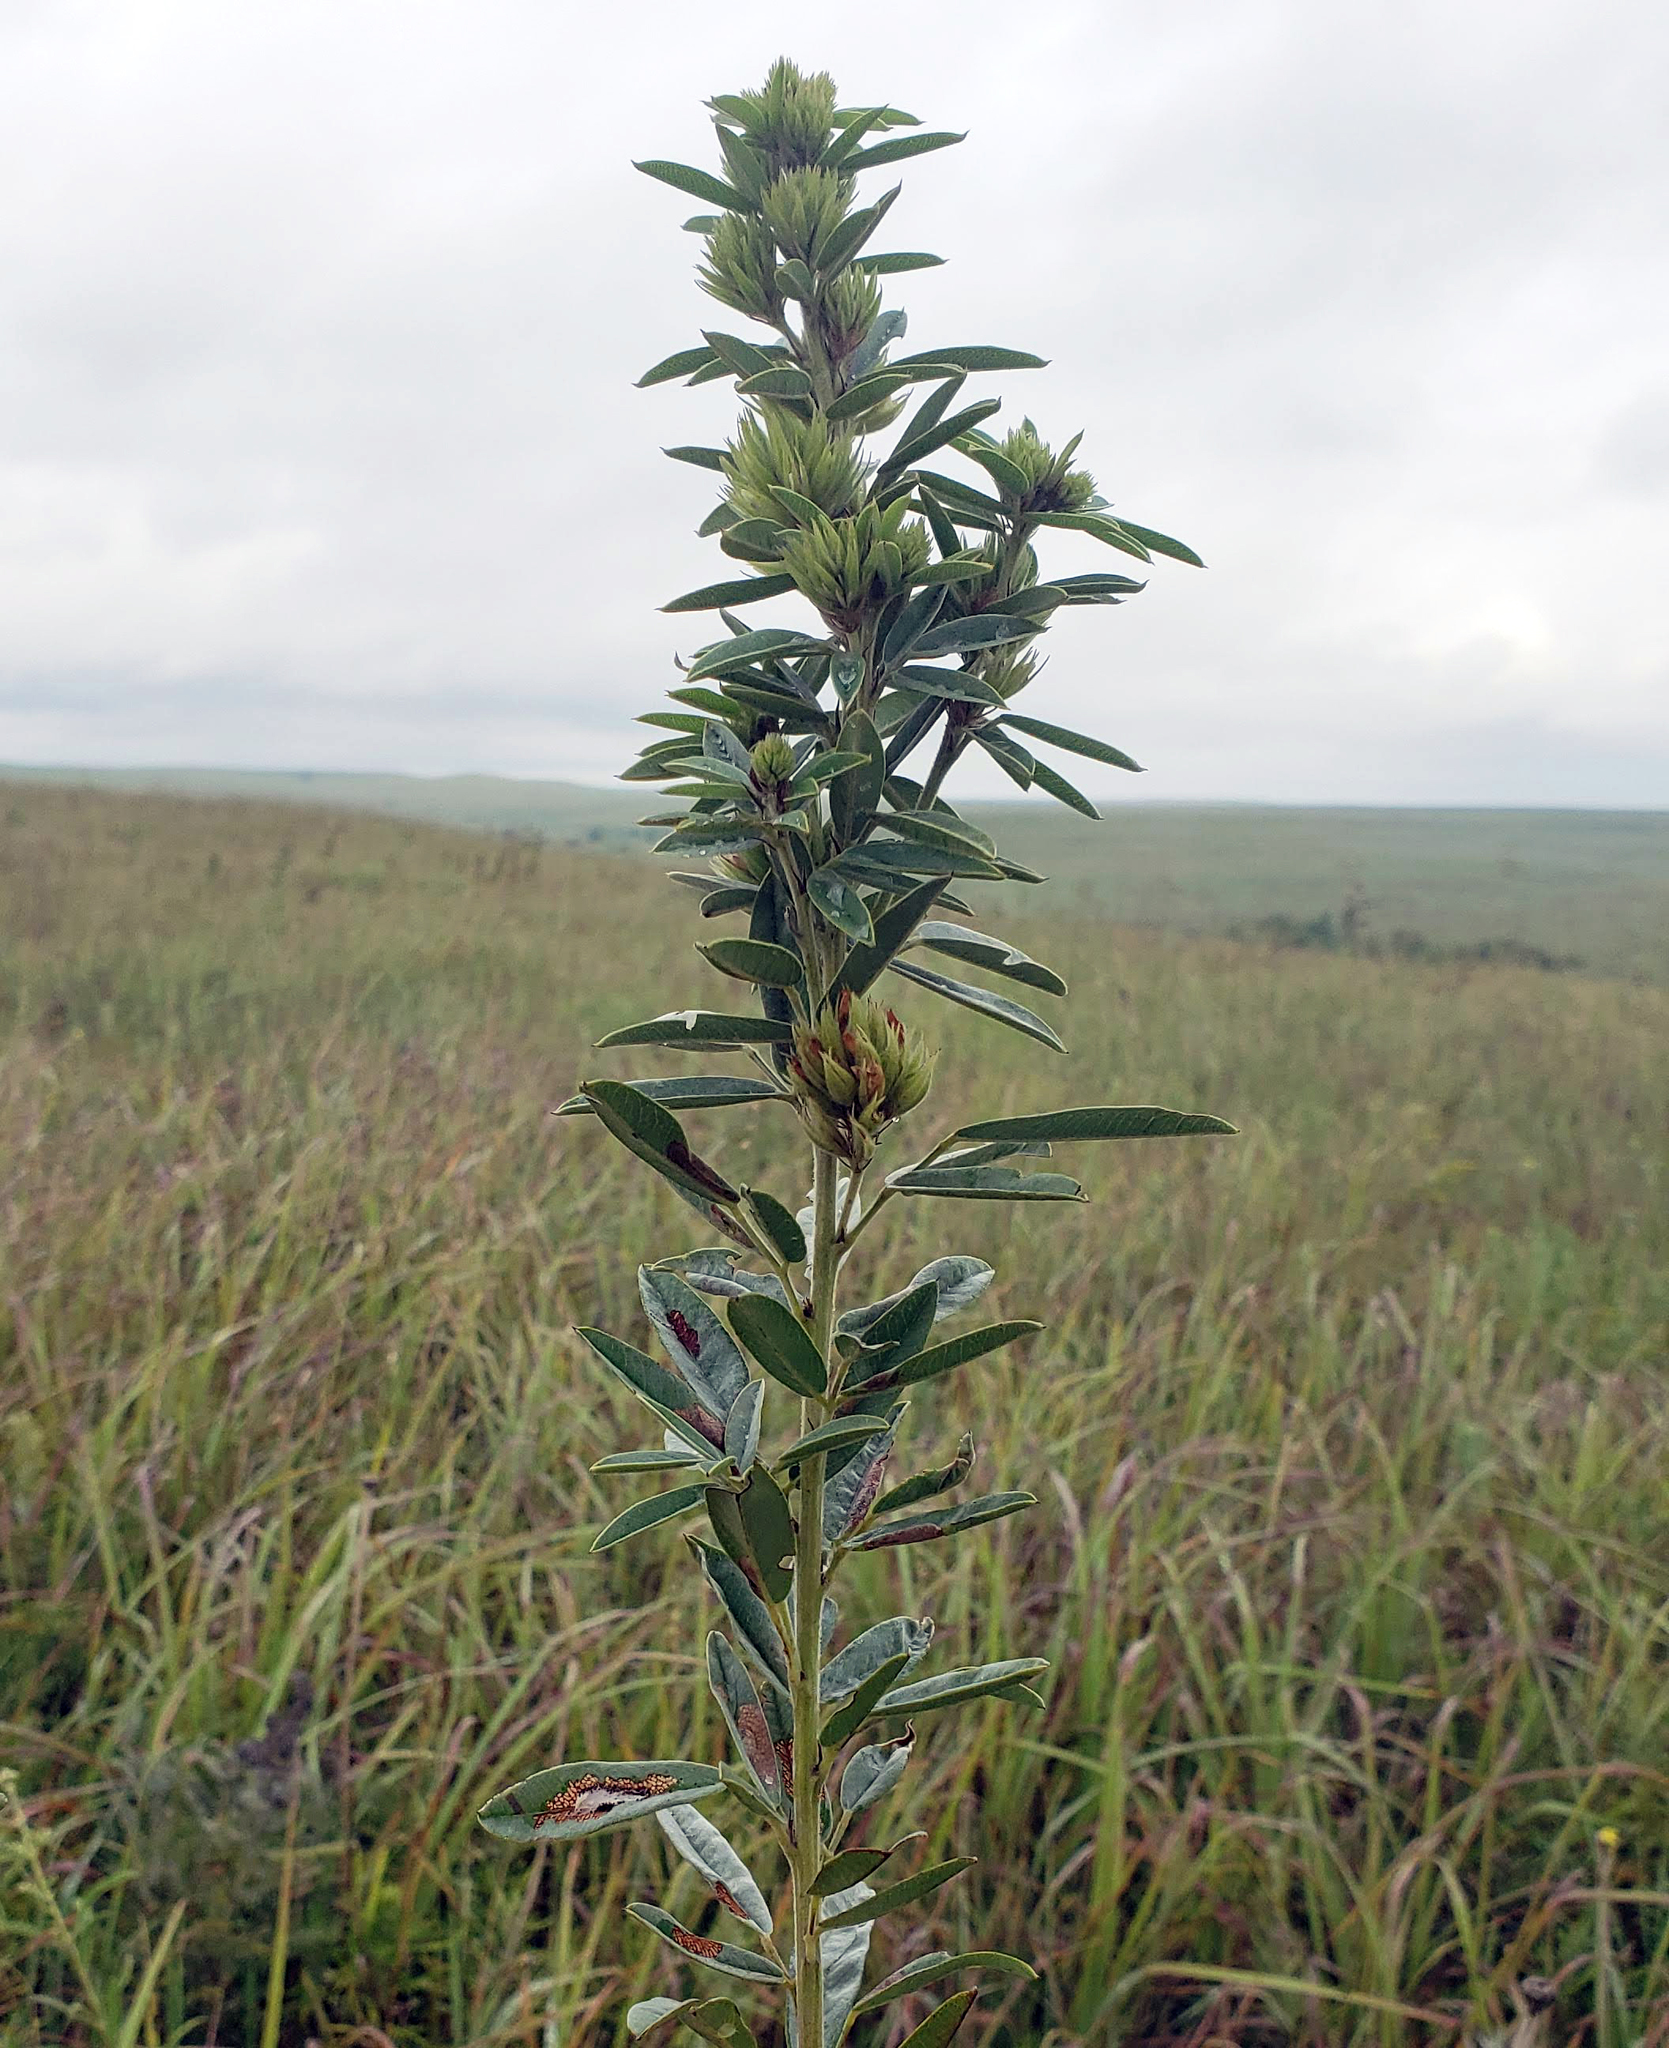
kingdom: Plantae
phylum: Tracheophyta
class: Magnoliopsida
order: Fabales
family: Fabaceae
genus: Lespedeza
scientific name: Lespedeza capitata
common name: Dusty clover
